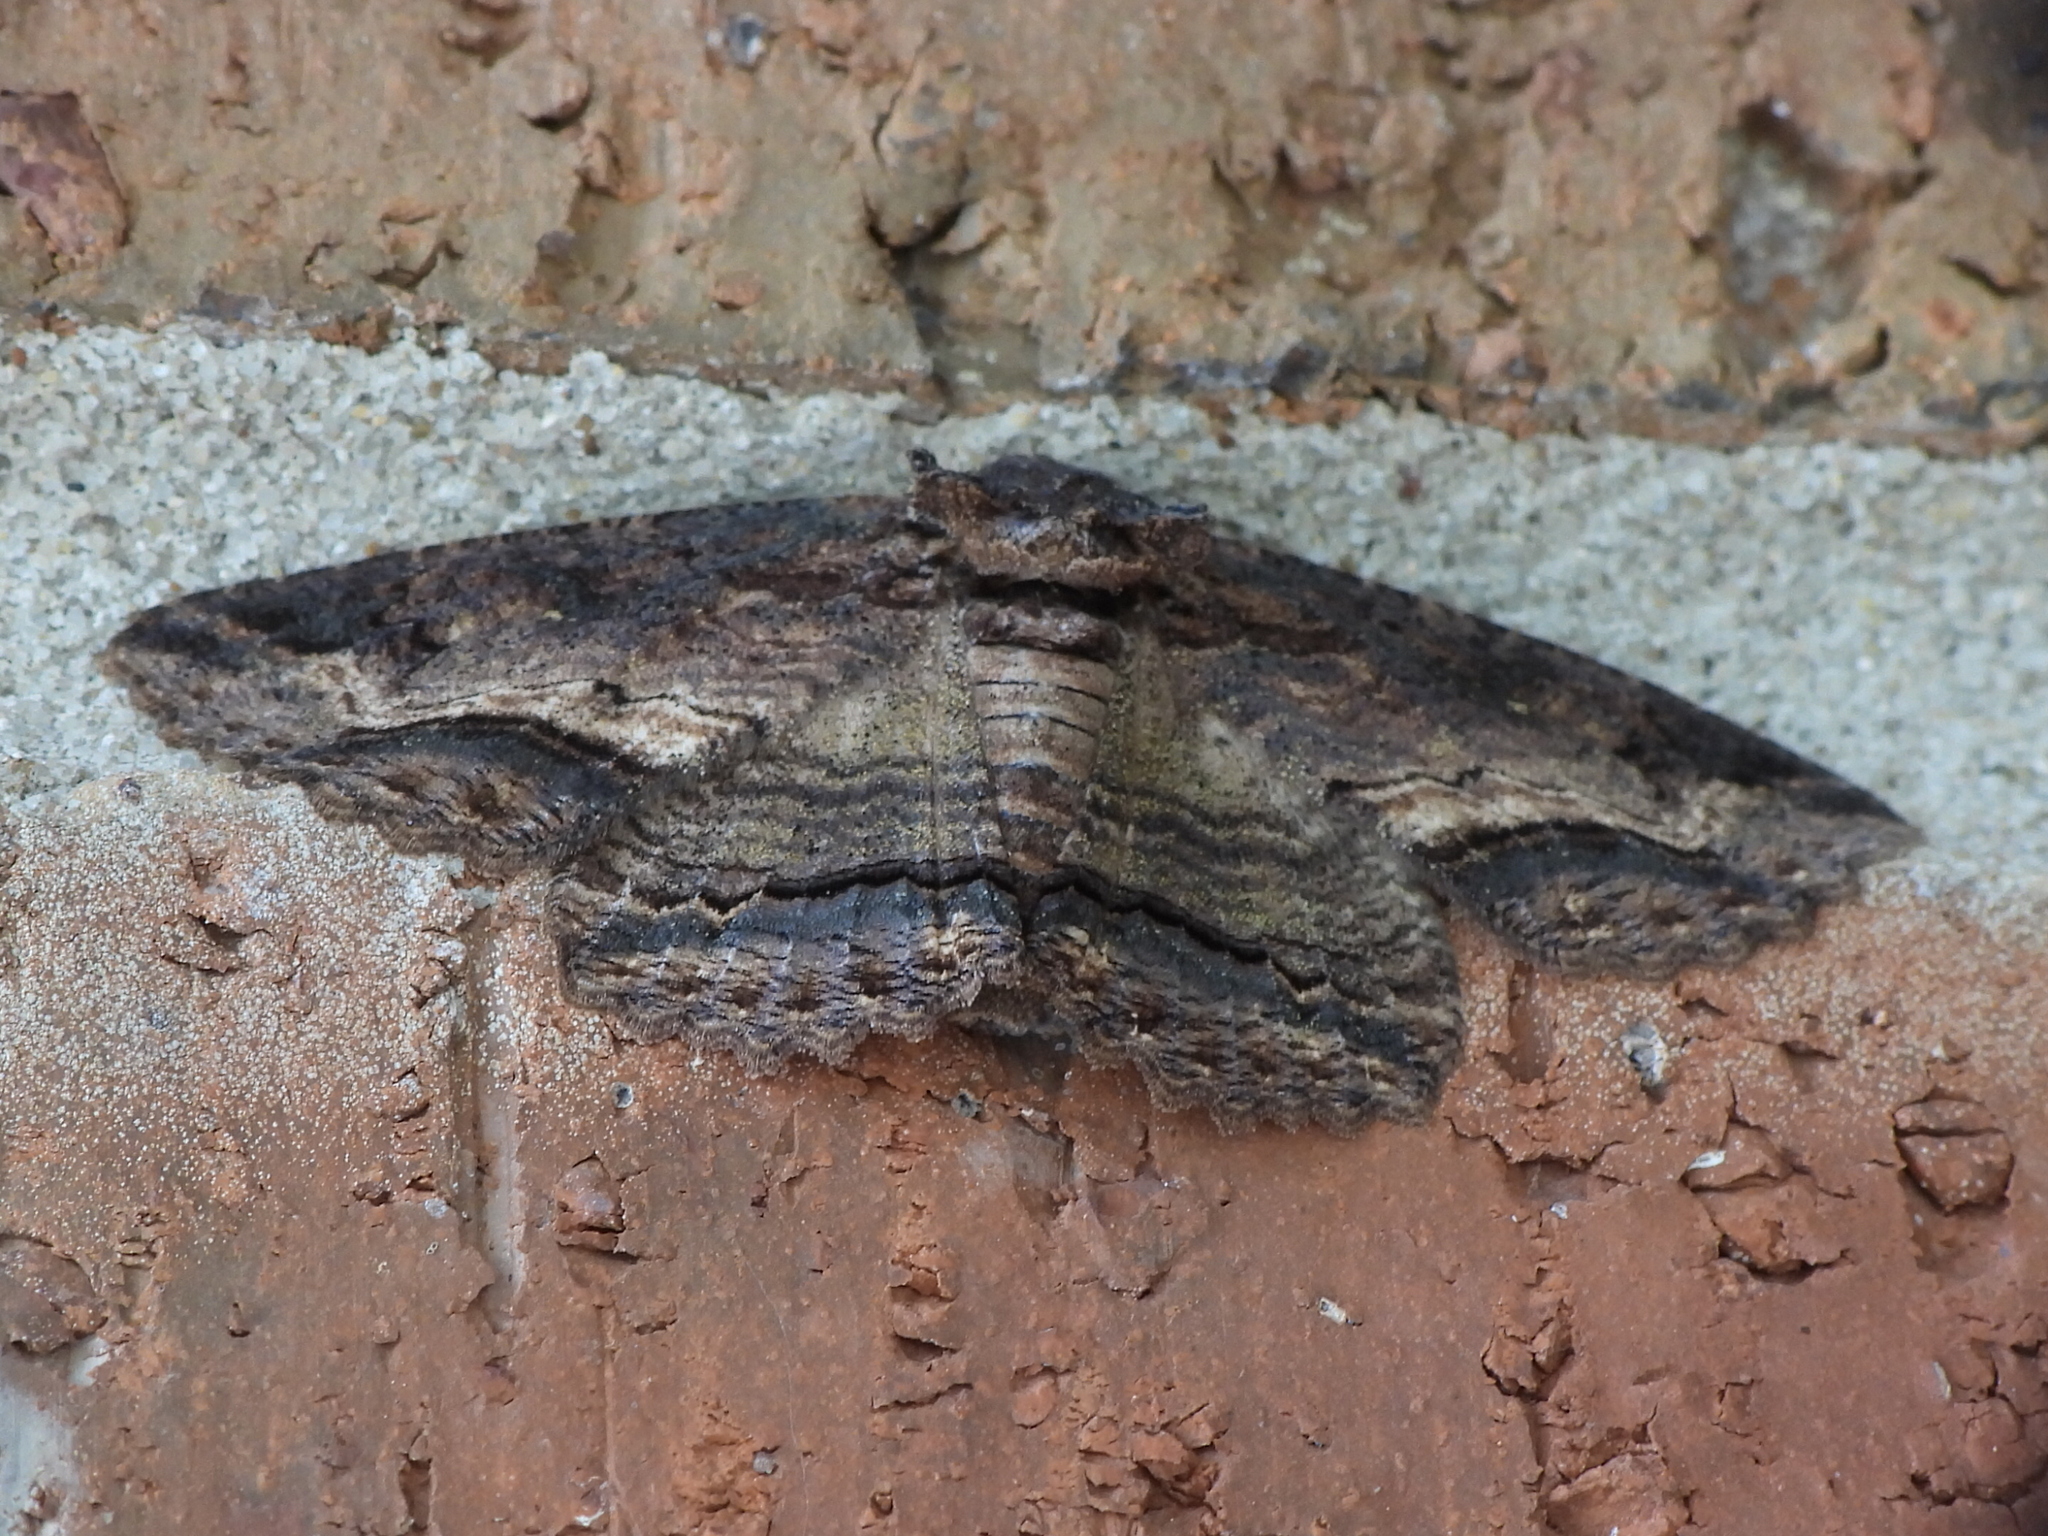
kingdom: Animalia
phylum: Arthropoda
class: Insecta
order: Lepidoptera
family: Erebidae
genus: Zale
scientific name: Zale lunata
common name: Lunate zale moth
